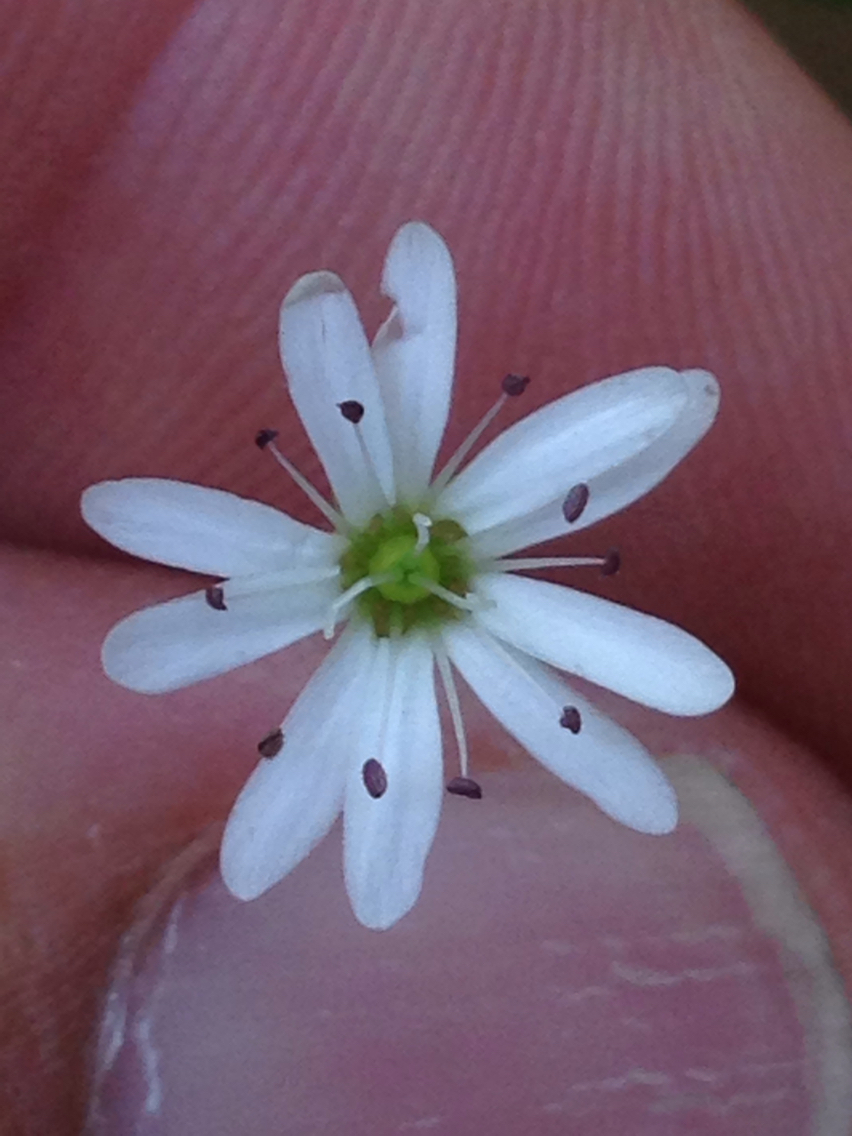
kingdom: Plantae
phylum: Tracheophyta
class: Magnoliopsida
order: Caryophyllales
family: Caryophyllaceae
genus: Stellaria
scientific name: Stellaria flaccida
